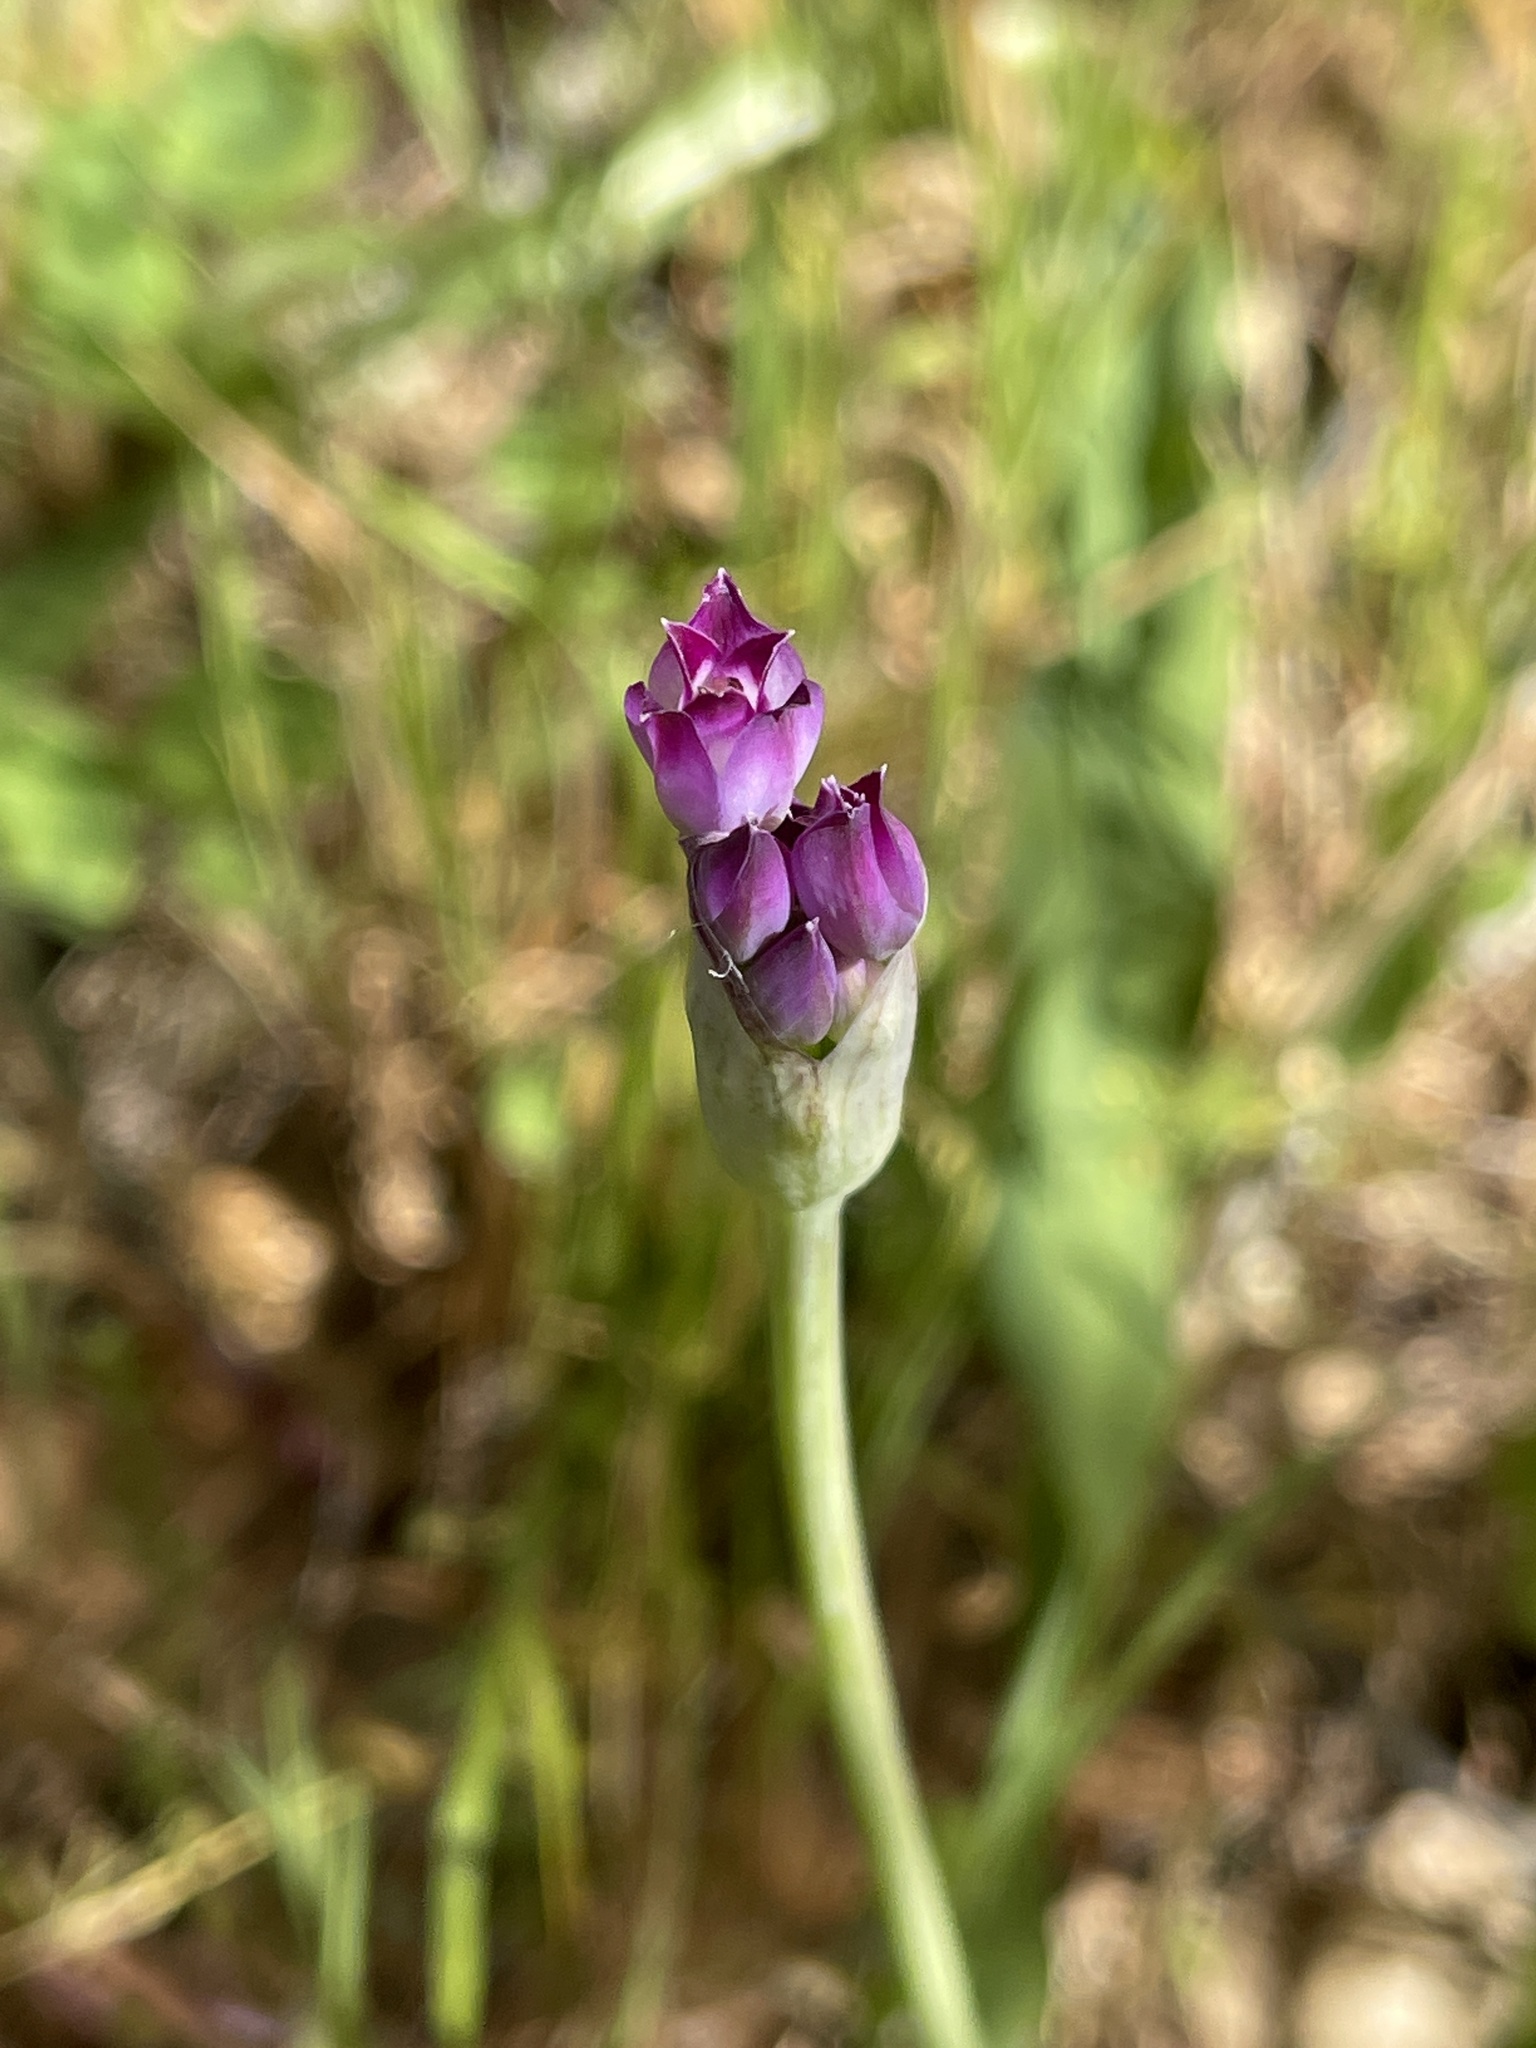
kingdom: Plantae
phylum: Tracheophyta
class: Liliopsida
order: Asparagales
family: Amaryllidaceae
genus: Allium
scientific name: Allium peninsulare
